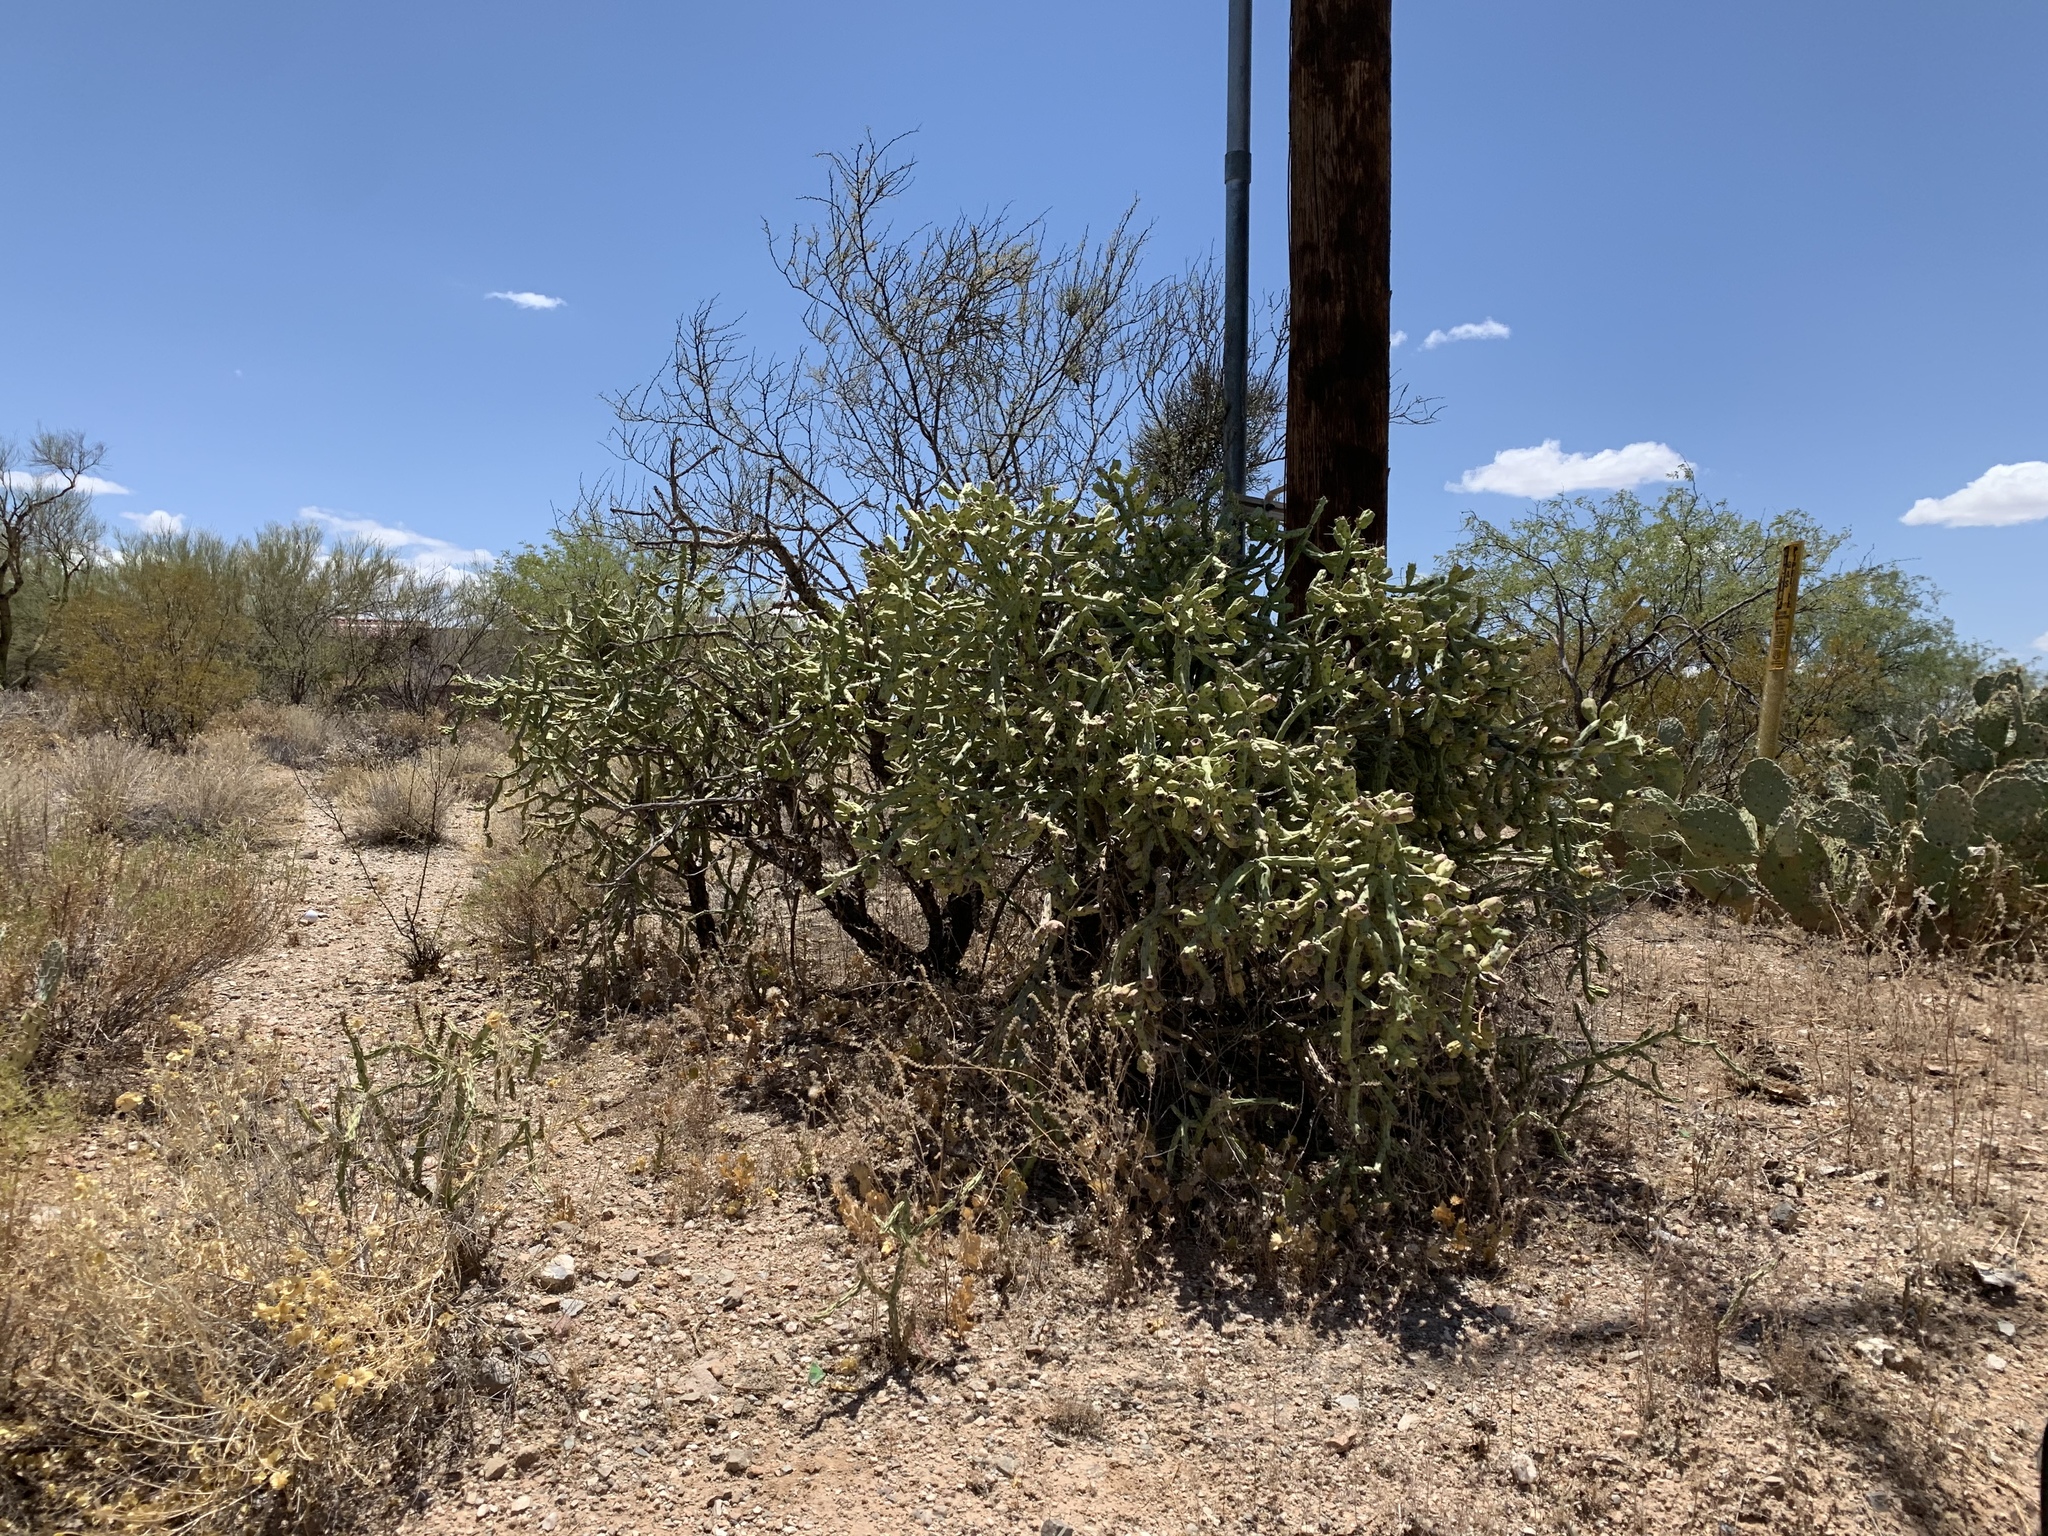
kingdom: Plantae
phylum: Tracheophyta
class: Magnoliopsida
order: Caryophyllales
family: Cactaceae
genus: Cylindropuntia
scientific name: Cylindropuntia arbuscula
